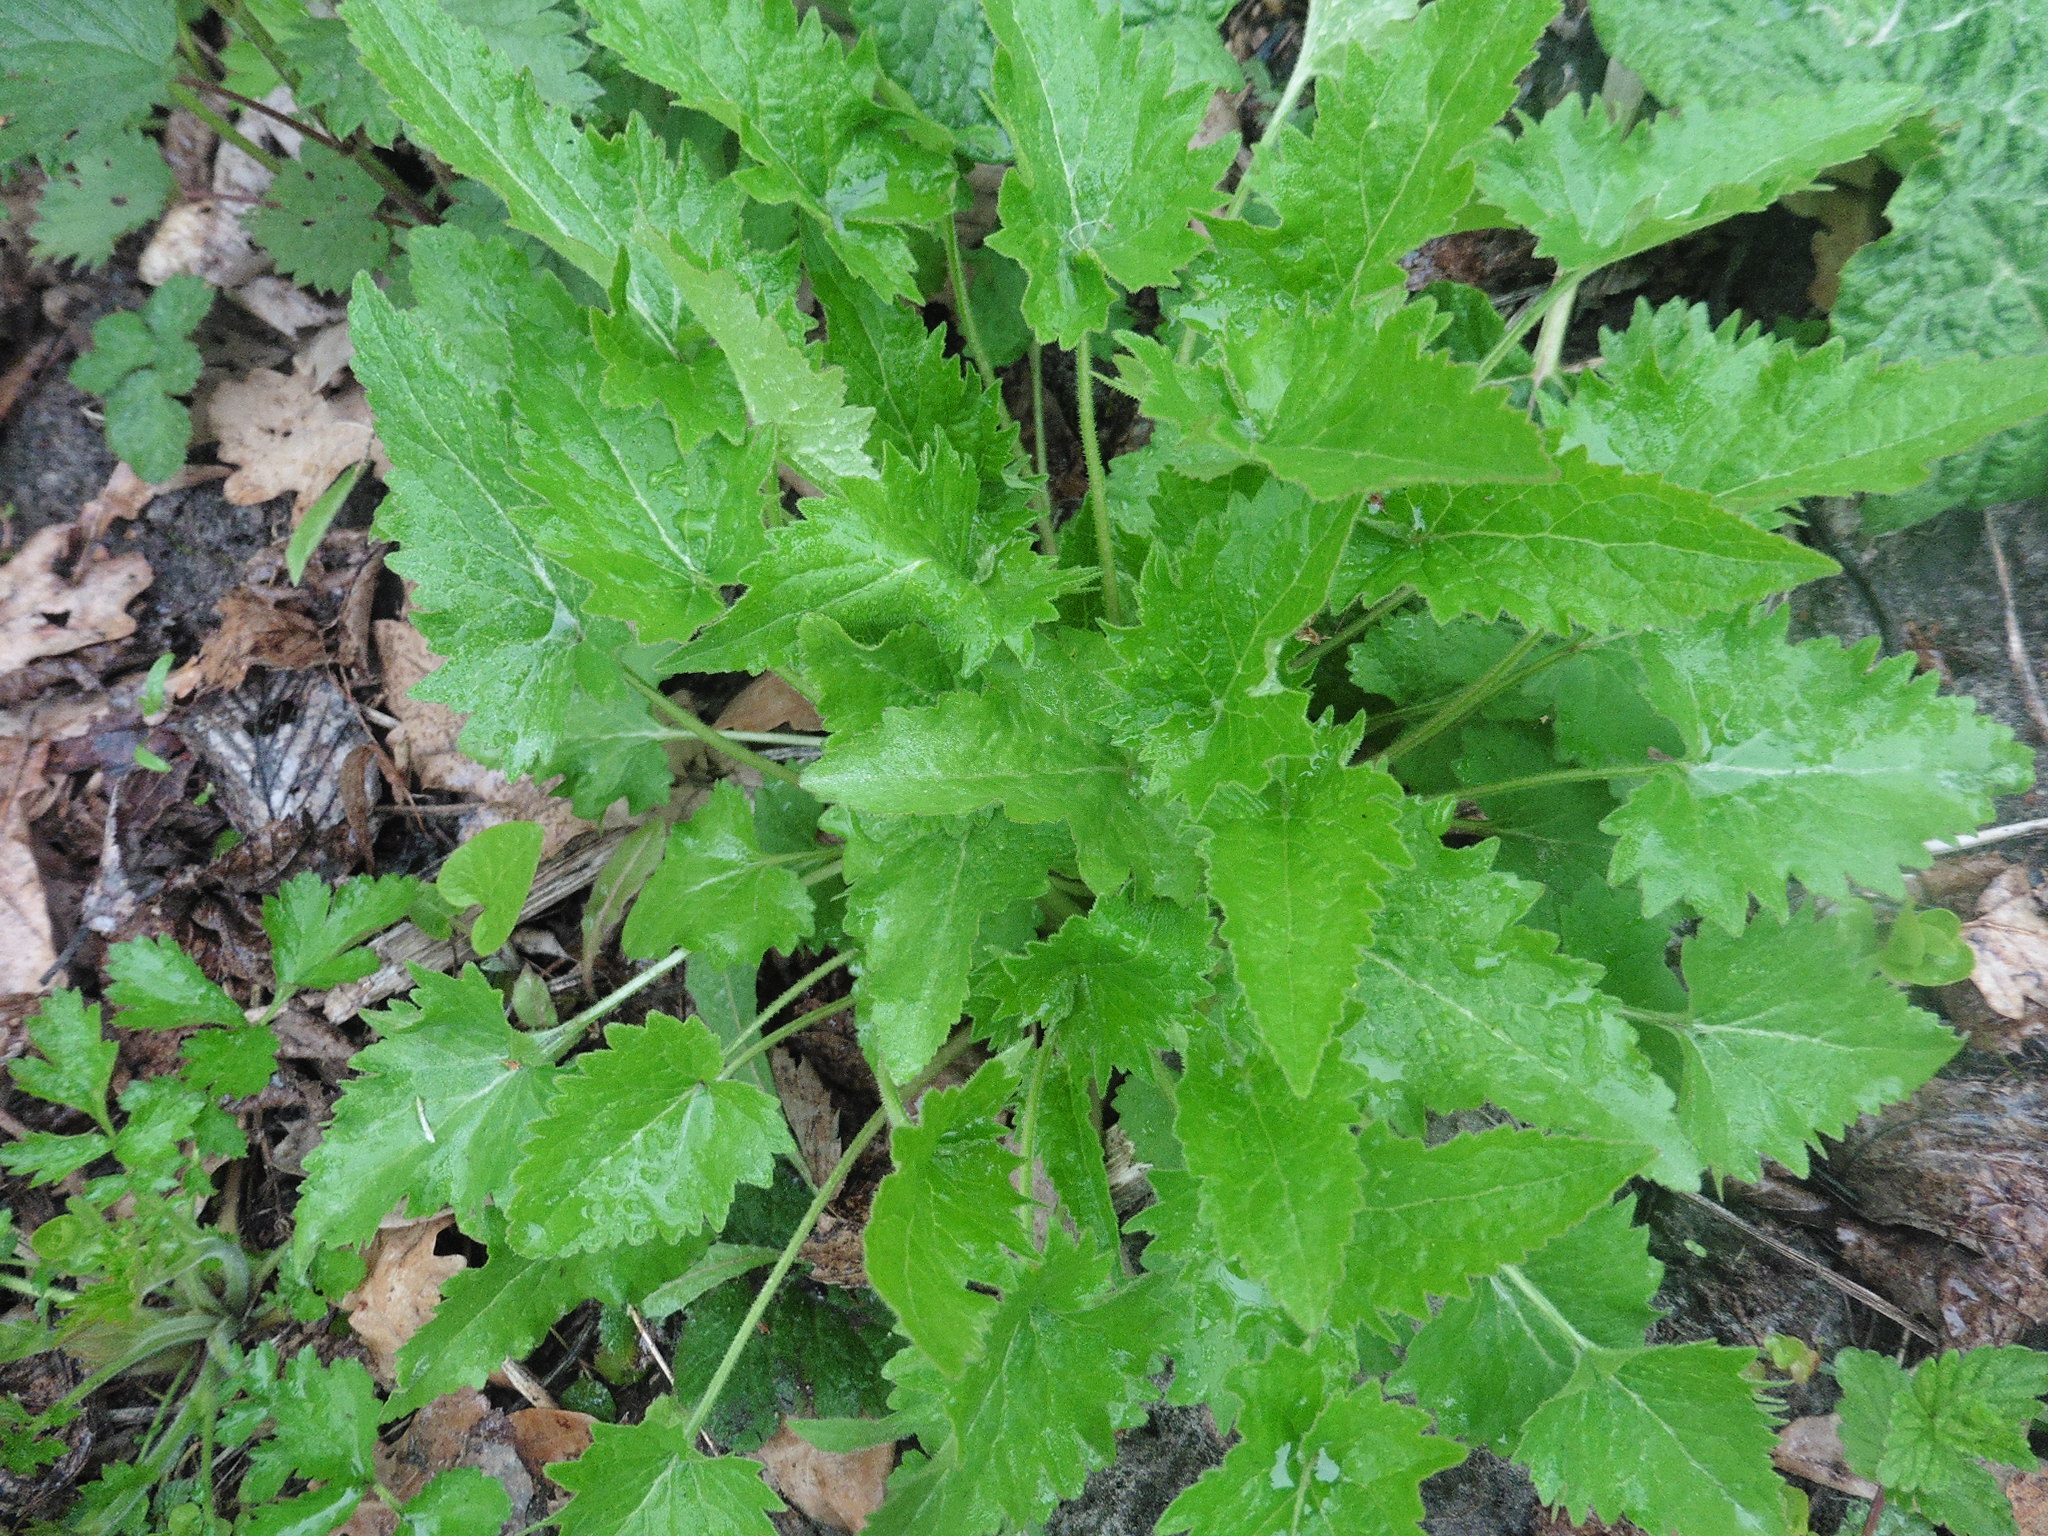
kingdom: Plantae
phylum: Tracheophyta
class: Magnoliopsida
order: Asterales
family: Campanulaceae
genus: Campanula
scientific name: Campanula trachelium
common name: Nettle-leaved bellflower
